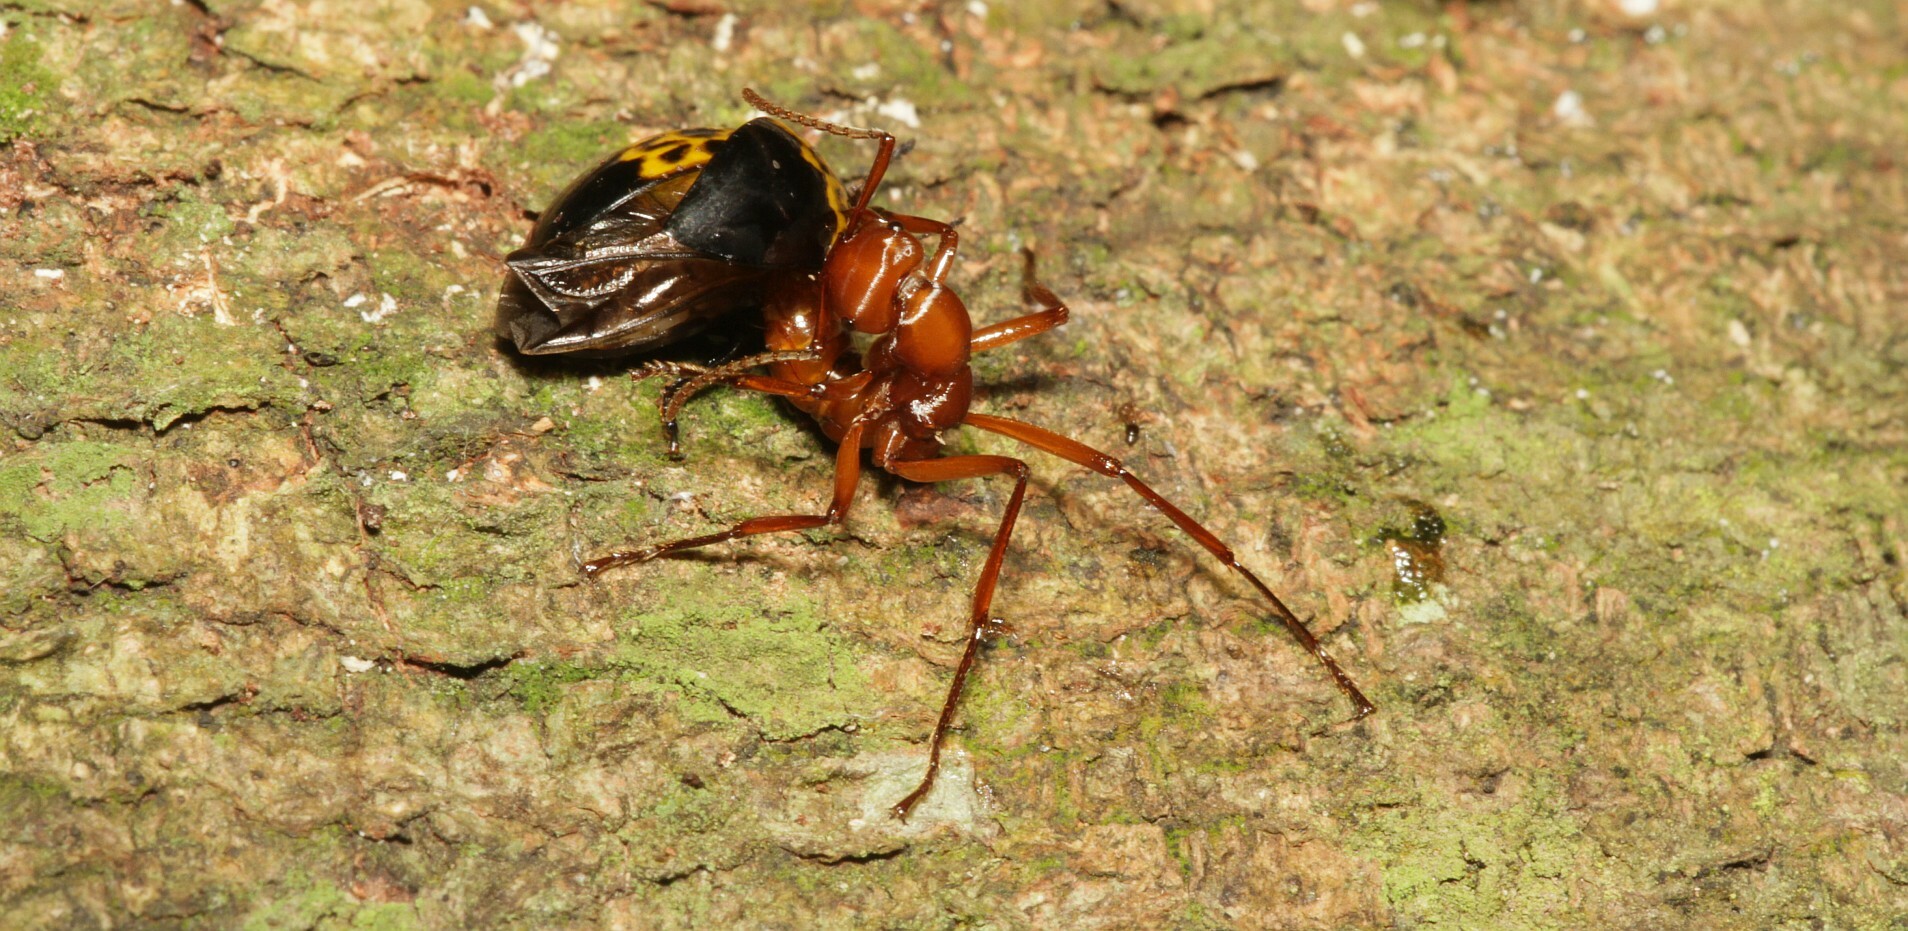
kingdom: Animalia
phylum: Arthropoda
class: Insecta
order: Hymenoptera
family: Formicidae
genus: Gnamptogenys
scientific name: Gnamptogenys concinna
